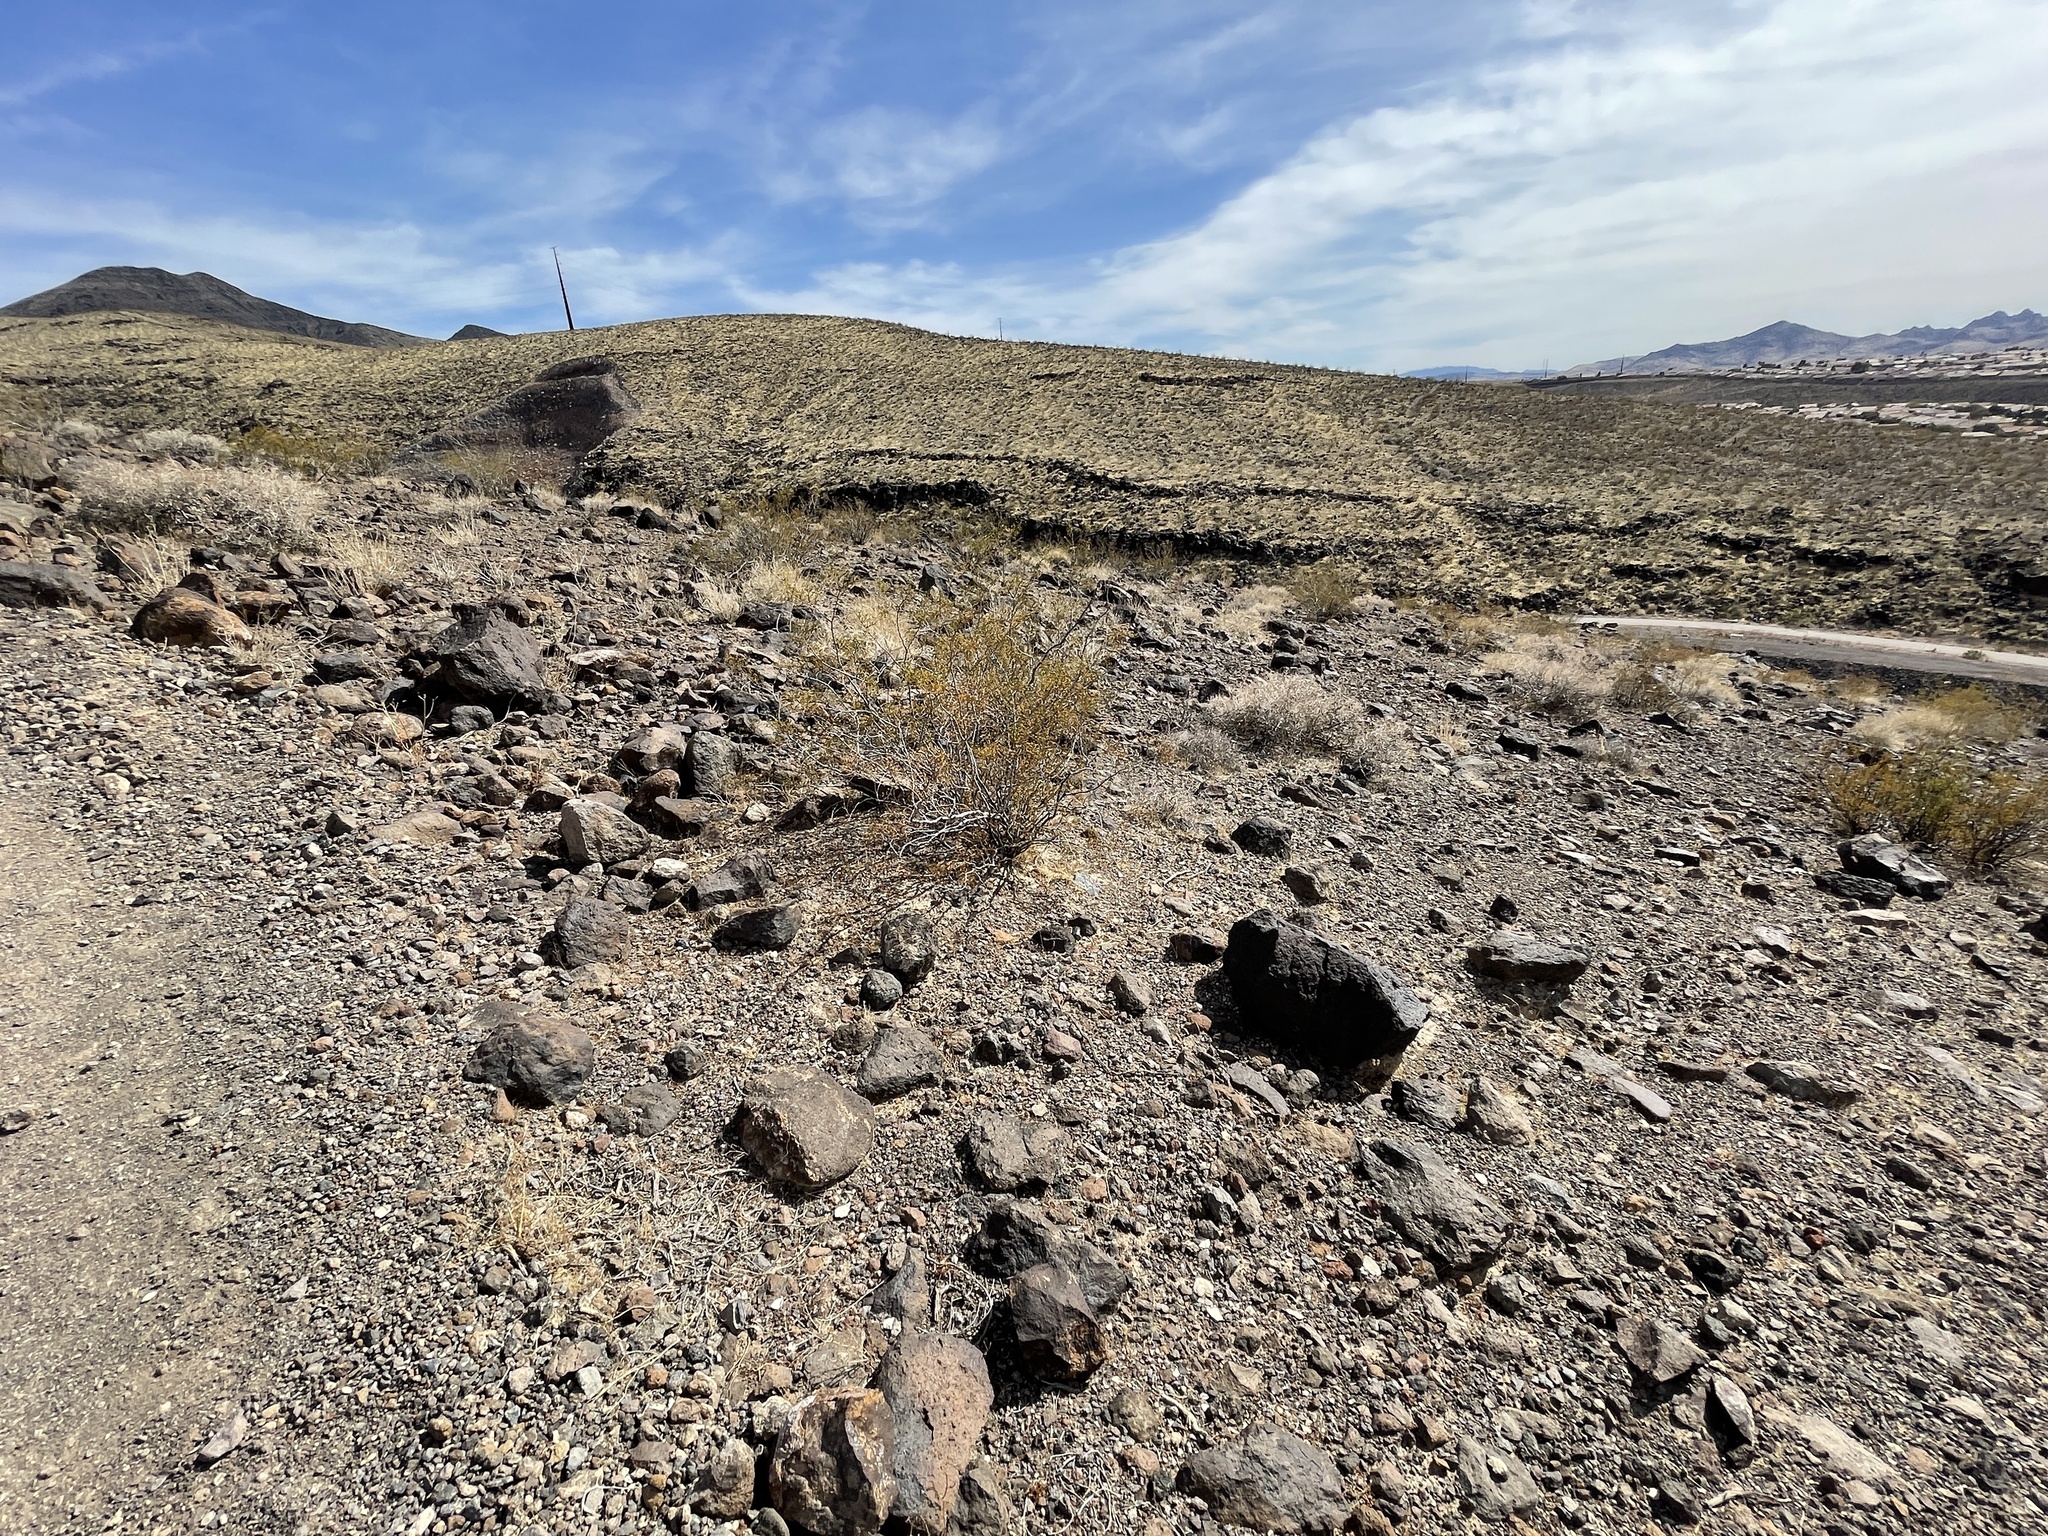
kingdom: Plantae
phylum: Tracheophyta
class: Magnoliopsida
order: Zygophyllales
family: Zygophyllaceae
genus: Larrea
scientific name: Larrea tridentata
